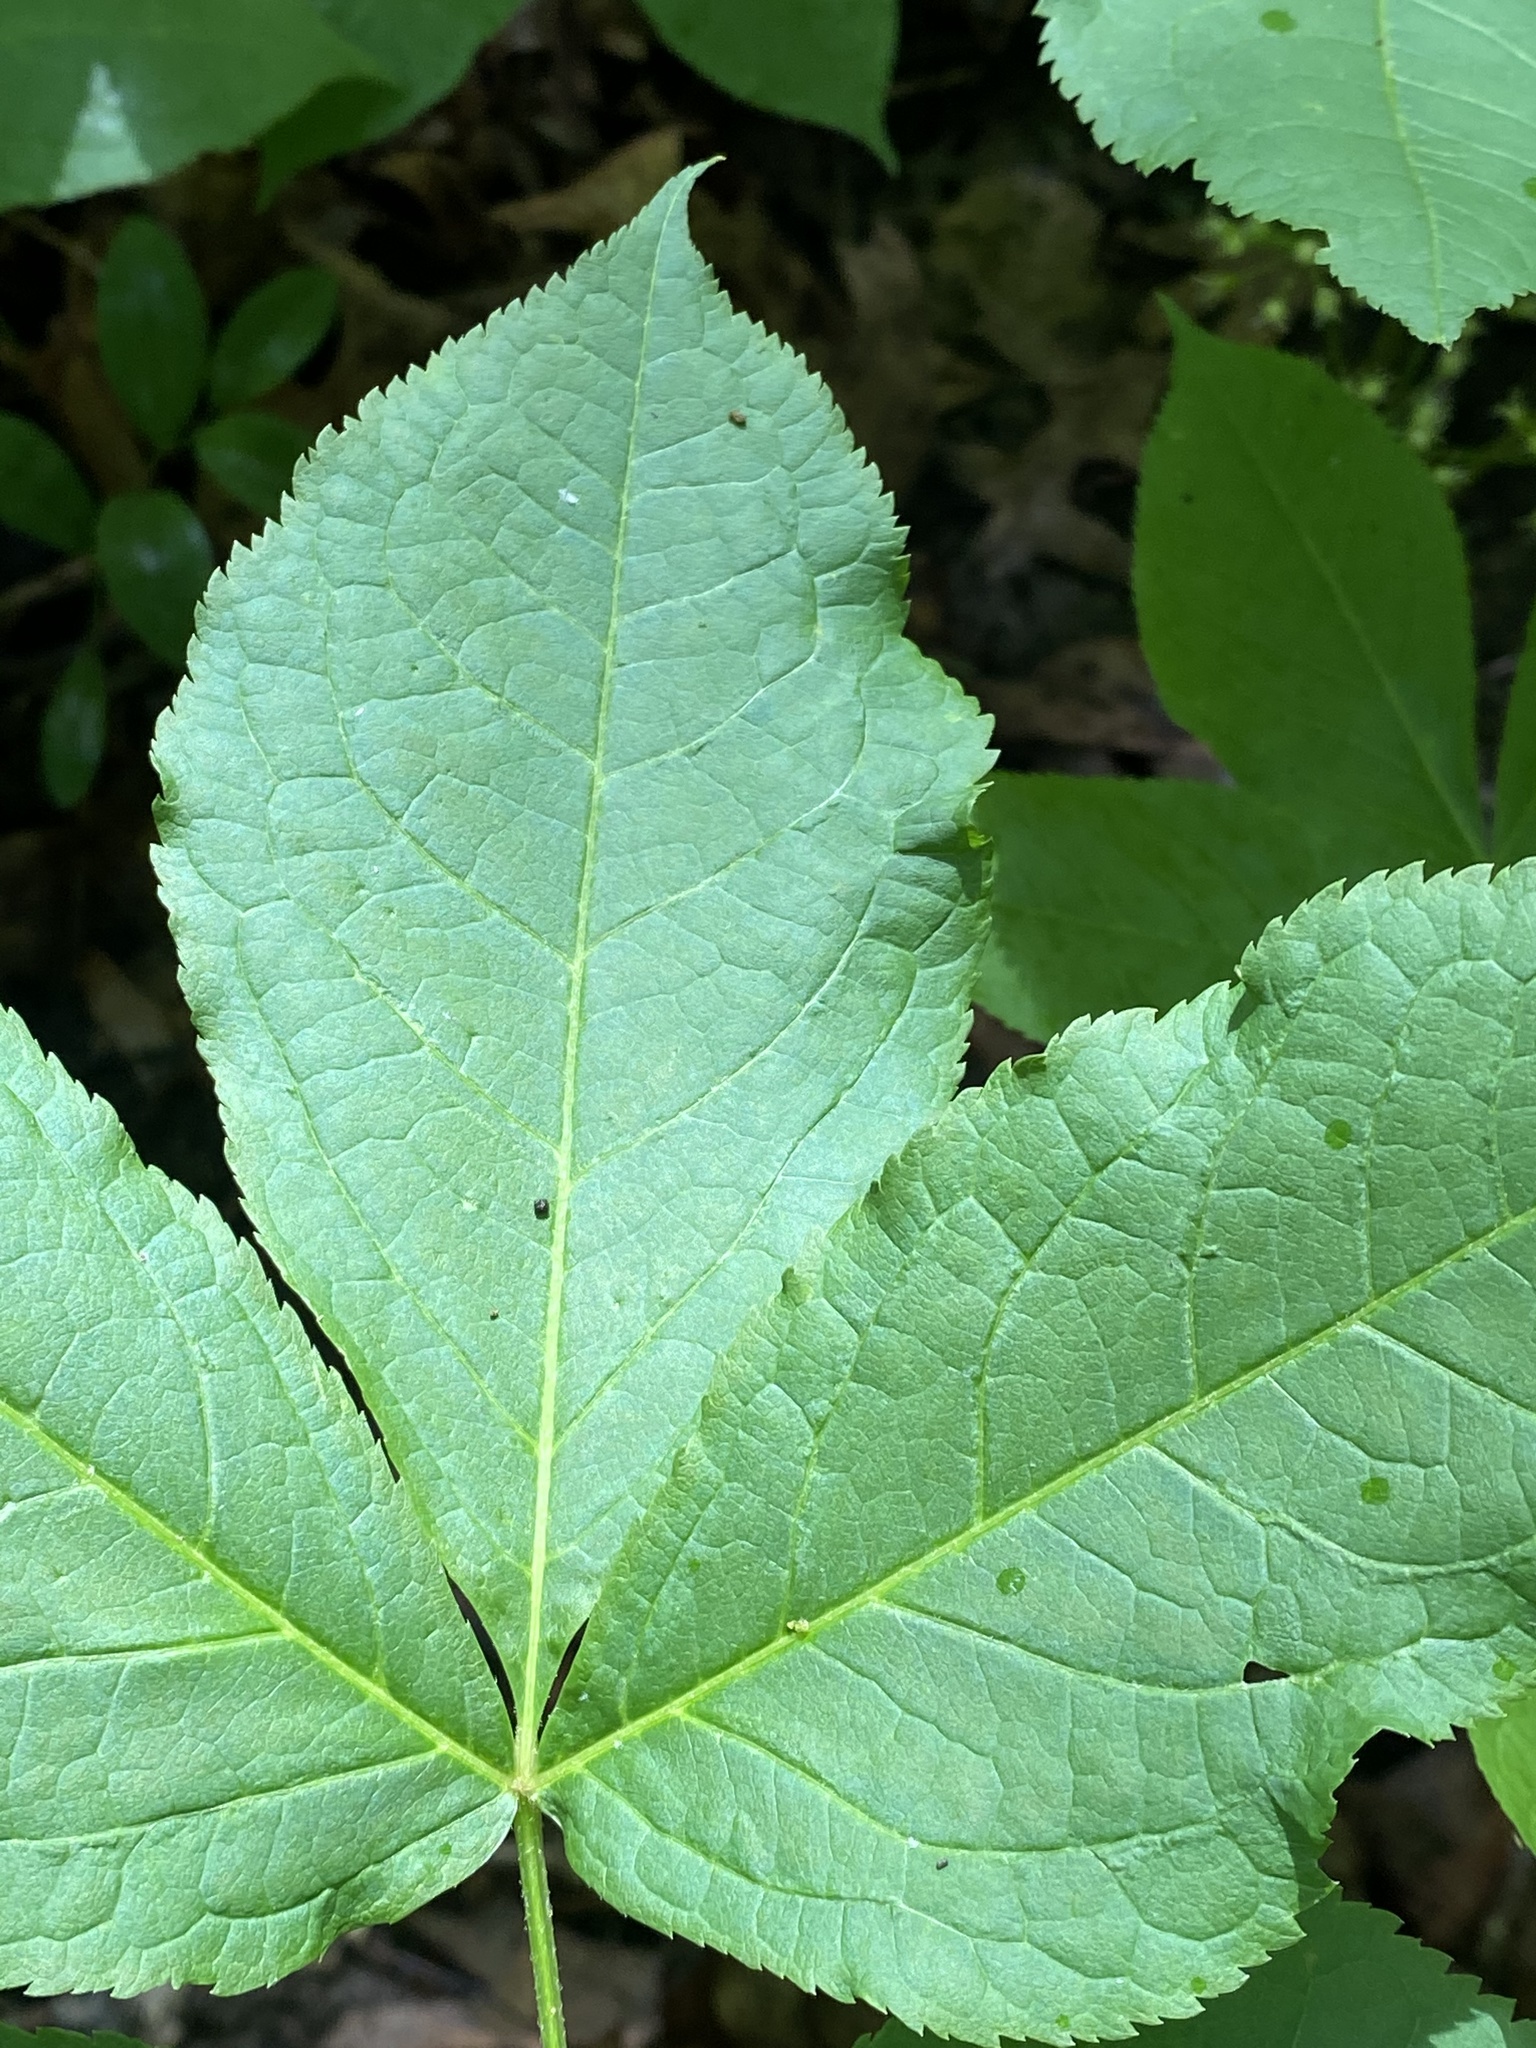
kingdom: Plantae
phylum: Tracheophyta
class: Magnoliopsida
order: Apiales
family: Araliaceae
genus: Aralia
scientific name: Aralia nudicaulis
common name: Wild sarsaparilla
